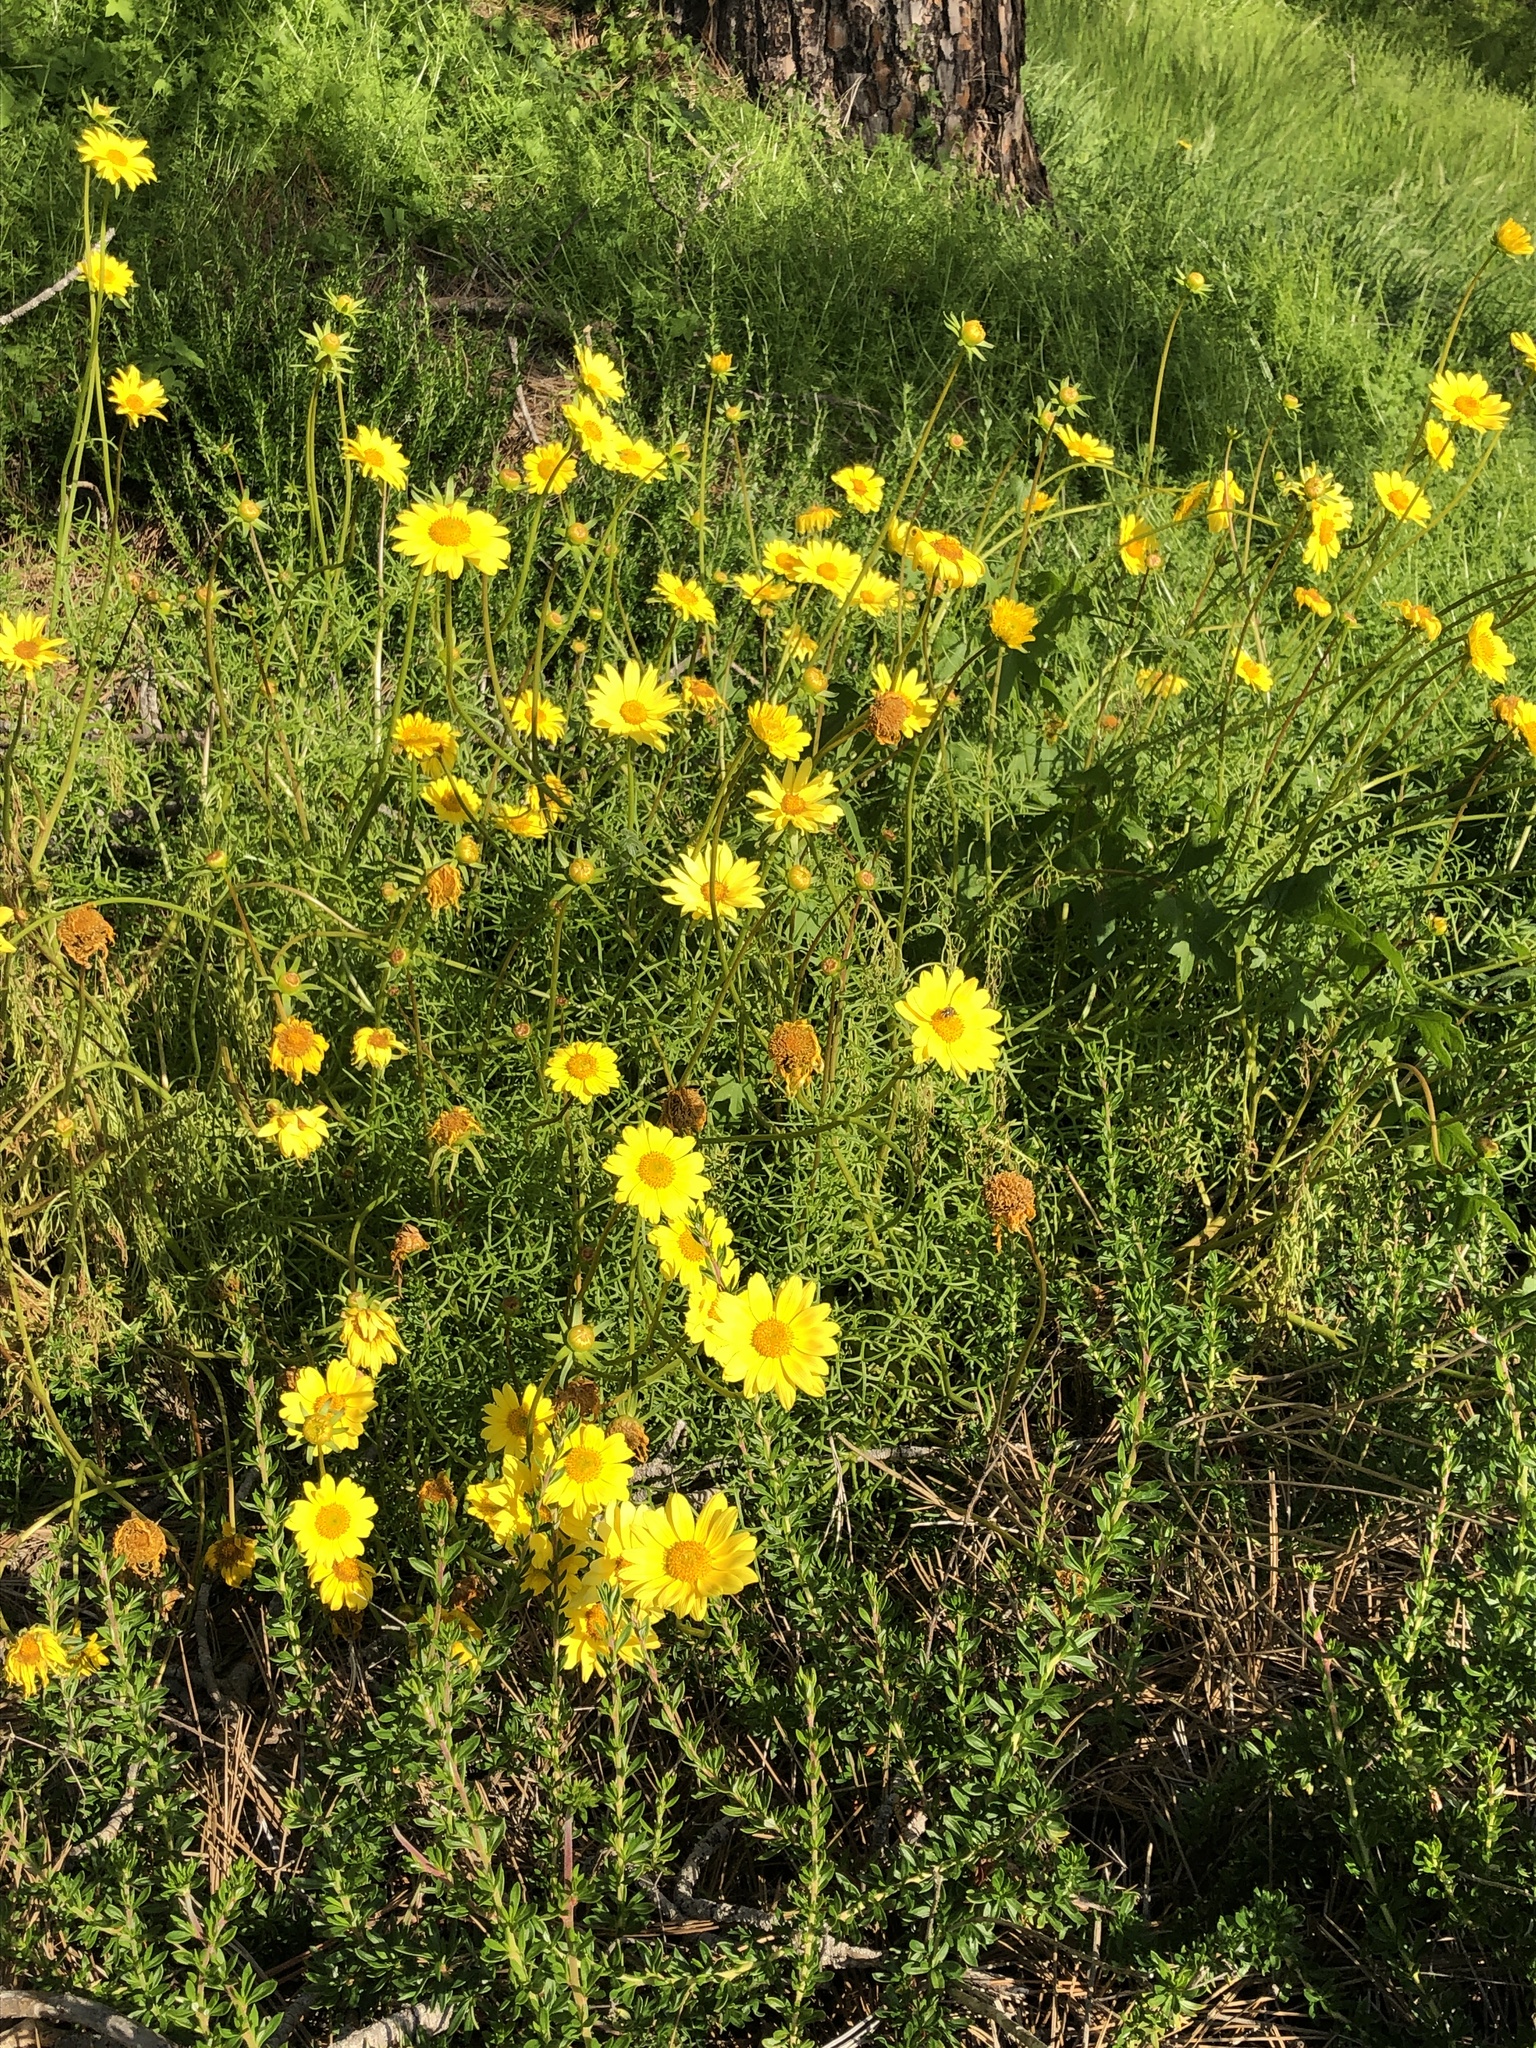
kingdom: Animalia
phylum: Arthropoda
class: Insecta
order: Diptera
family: Syrphidae
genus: Copestylum
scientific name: Copestylum avidum
